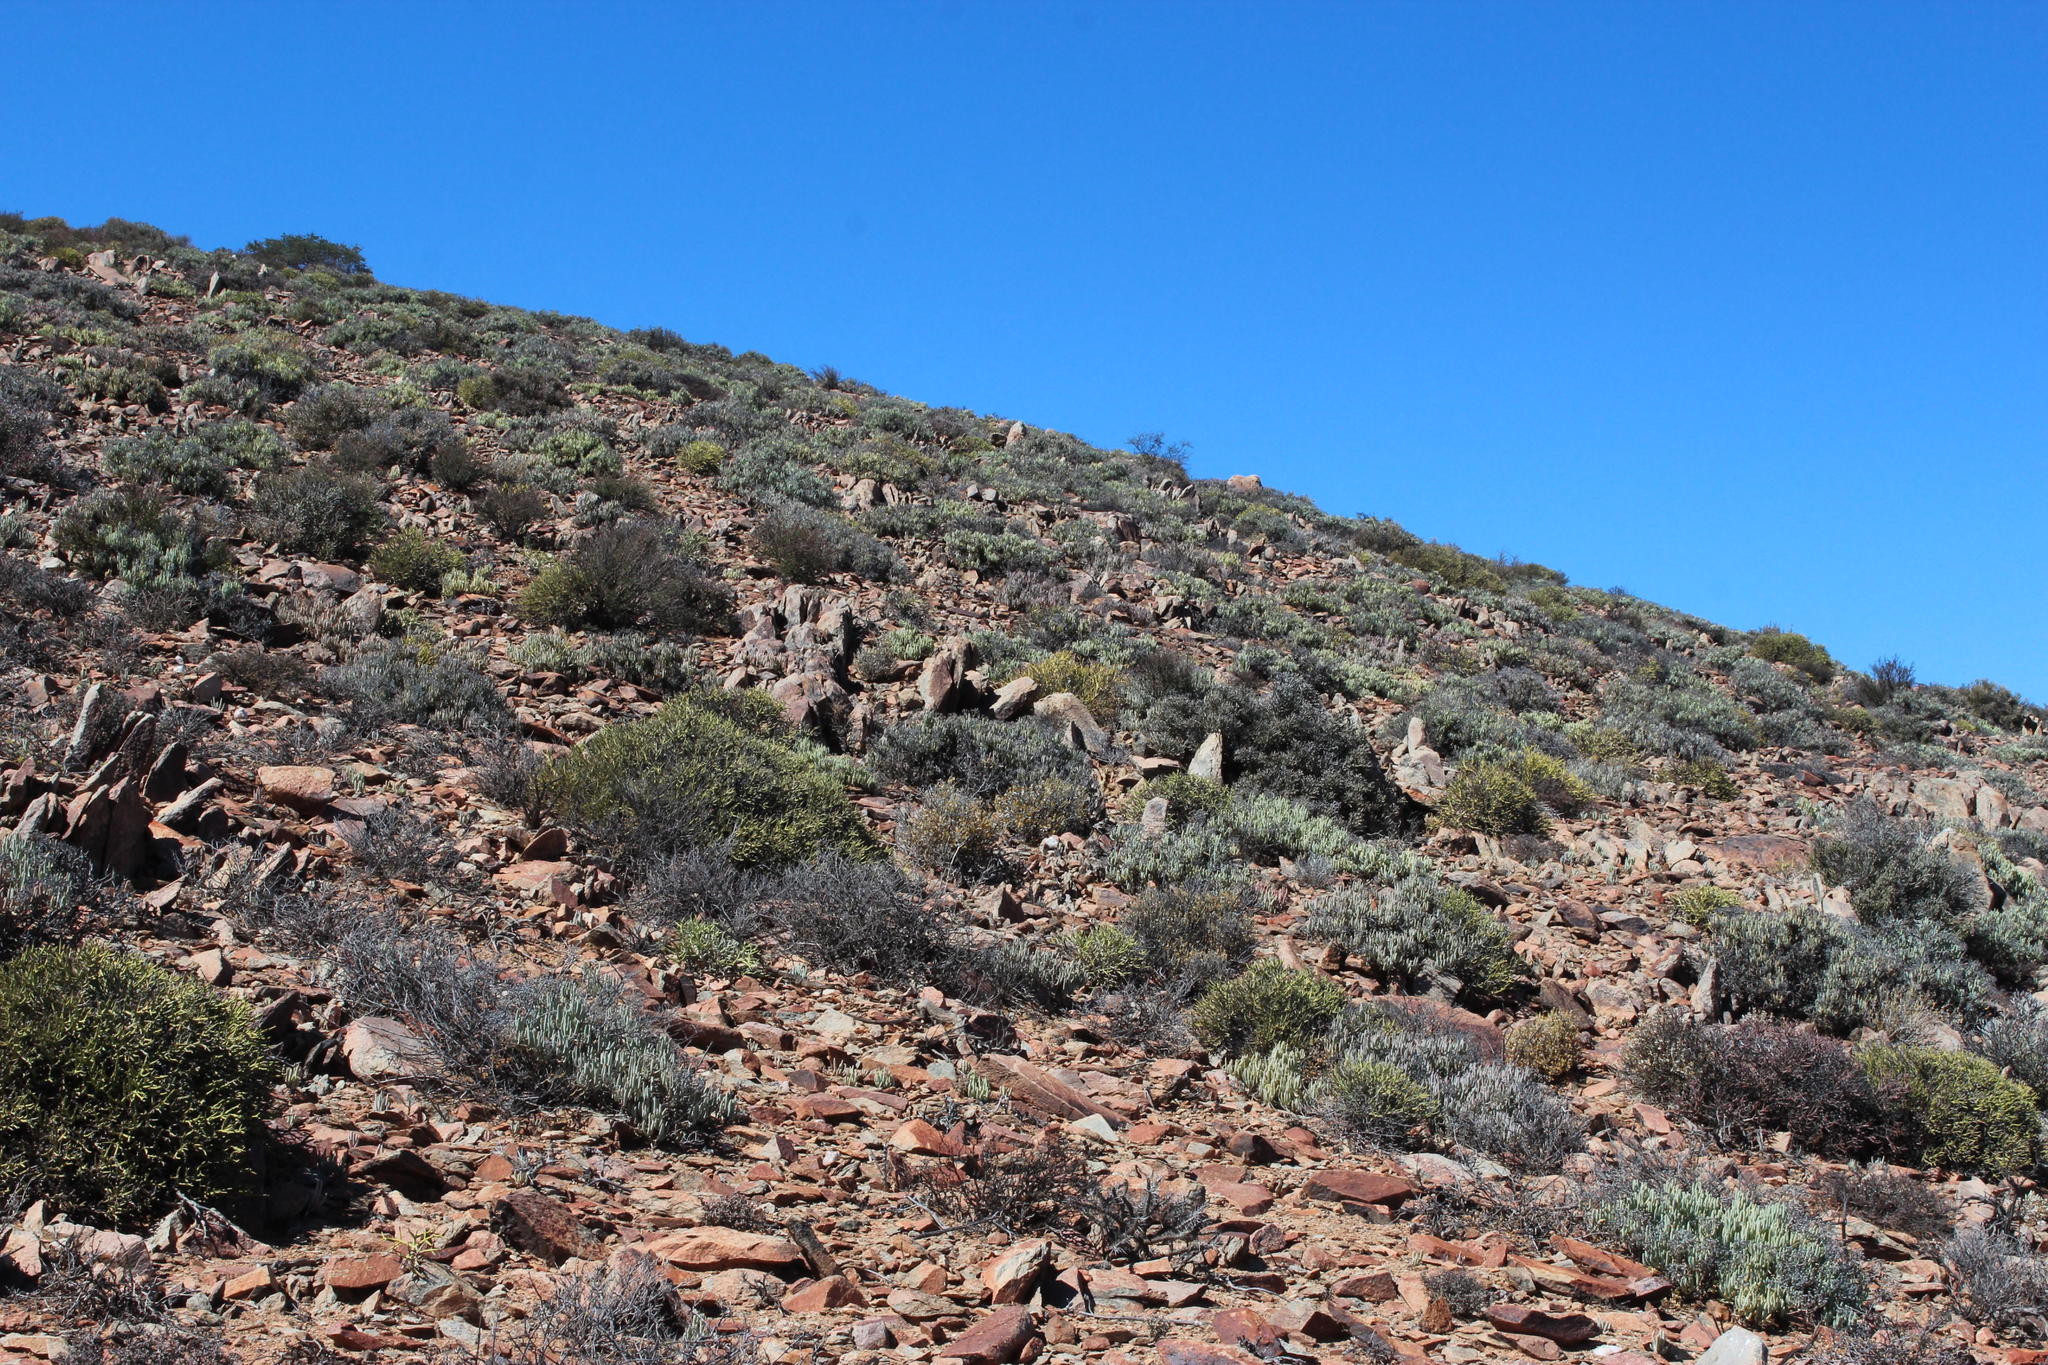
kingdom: Plantae
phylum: Tracheophyta
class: Magnoliopsida
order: Caryophyllales
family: Didiereaceae
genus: Portulacaria
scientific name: Portulacaria fruticulosa
